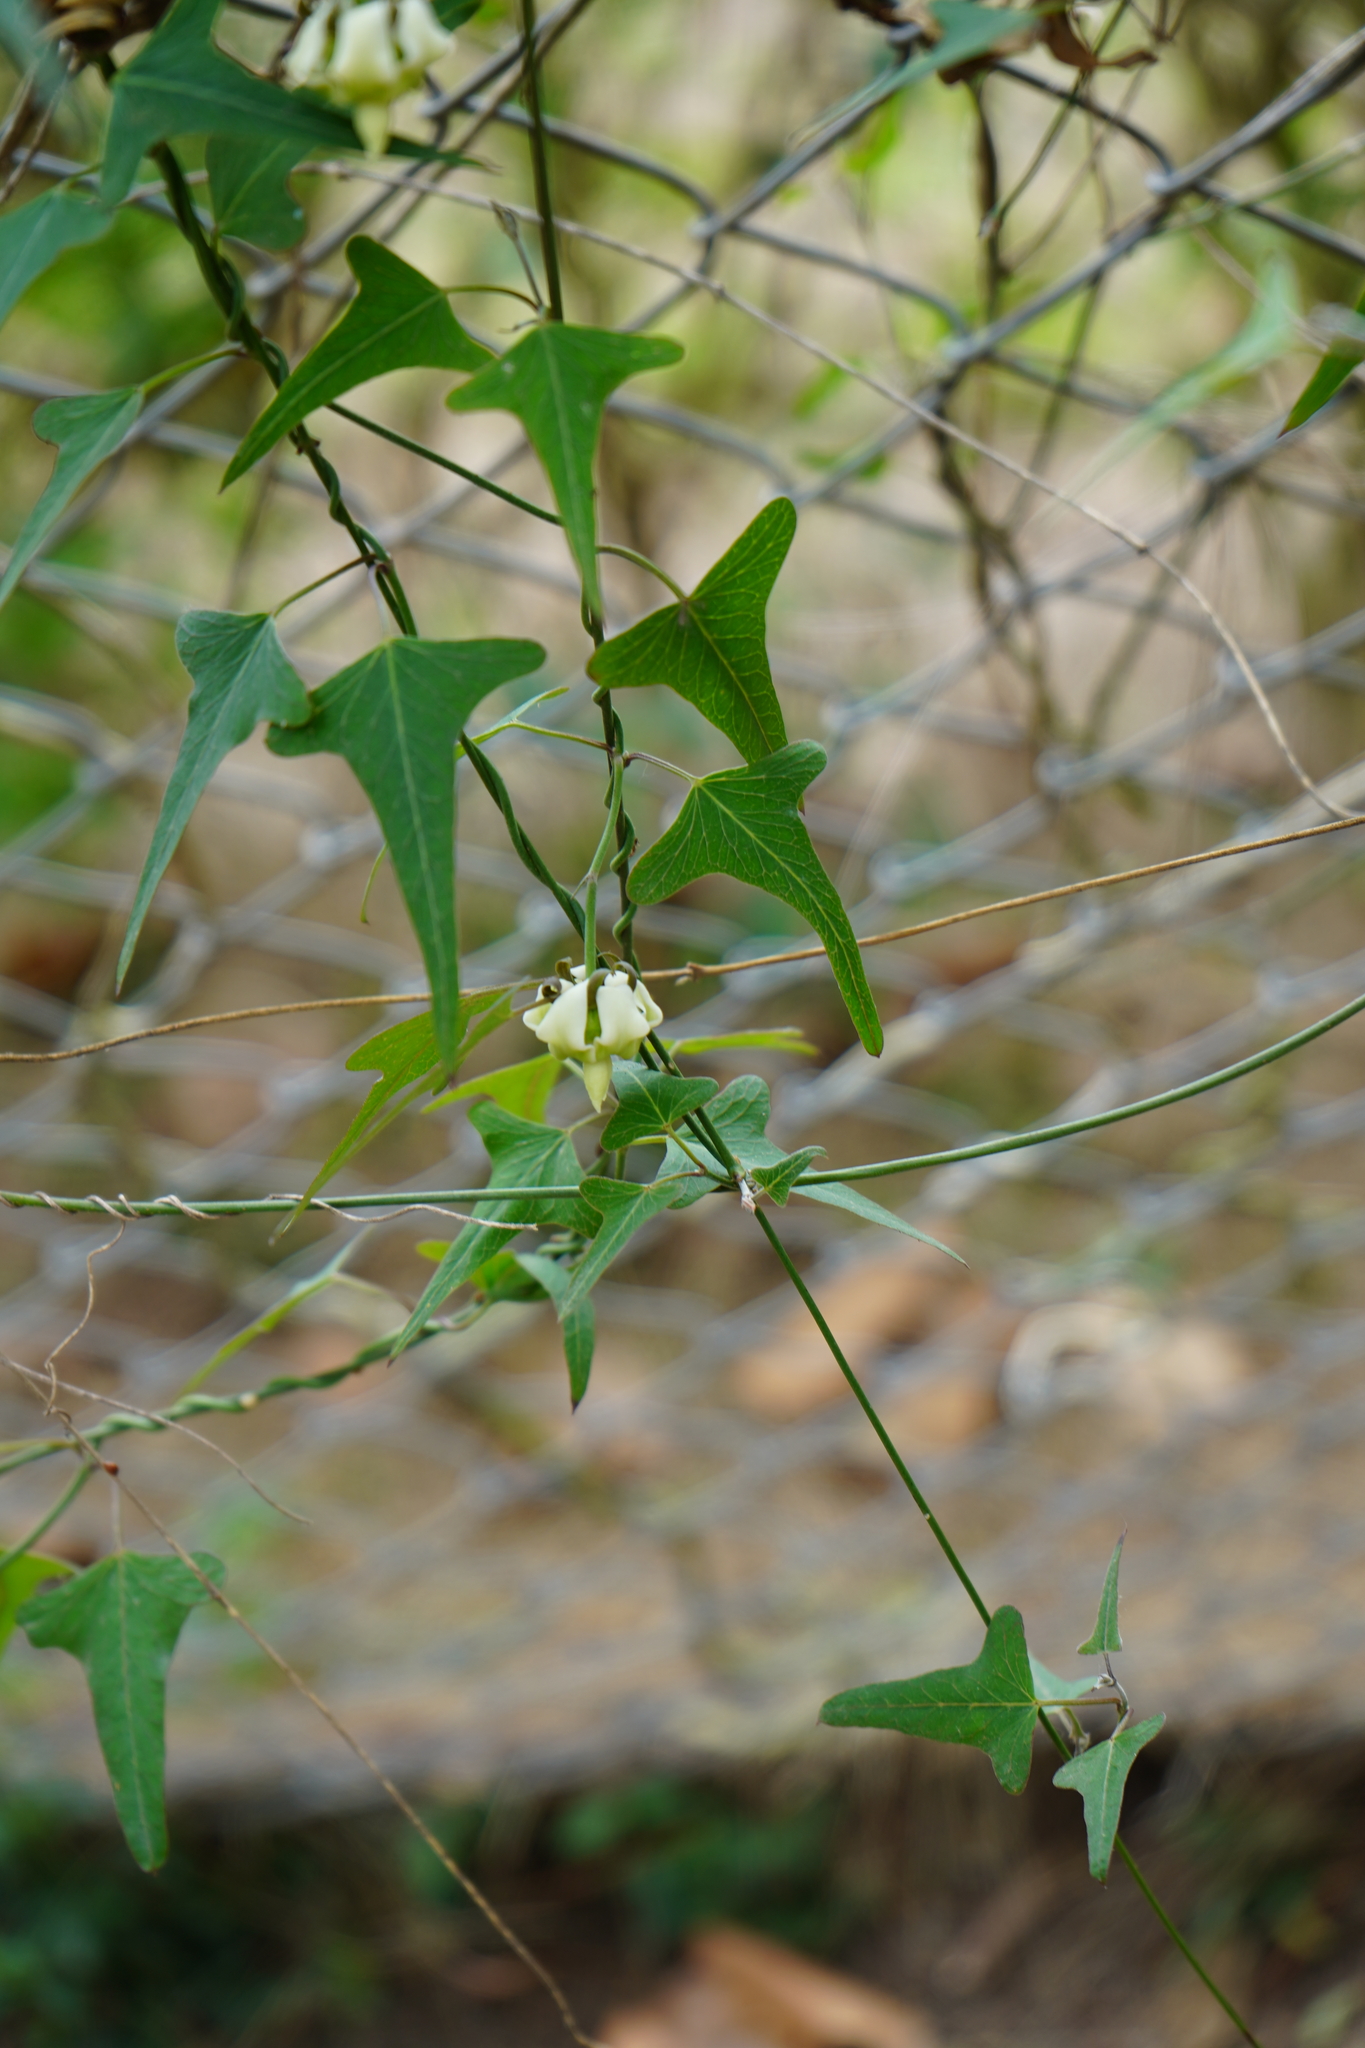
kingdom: Plantae
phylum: Tracheophyta
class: Magnoliopsida
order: Gentianales
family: Apocynaceae
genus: Araujia
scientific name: Araujia angustifolia
